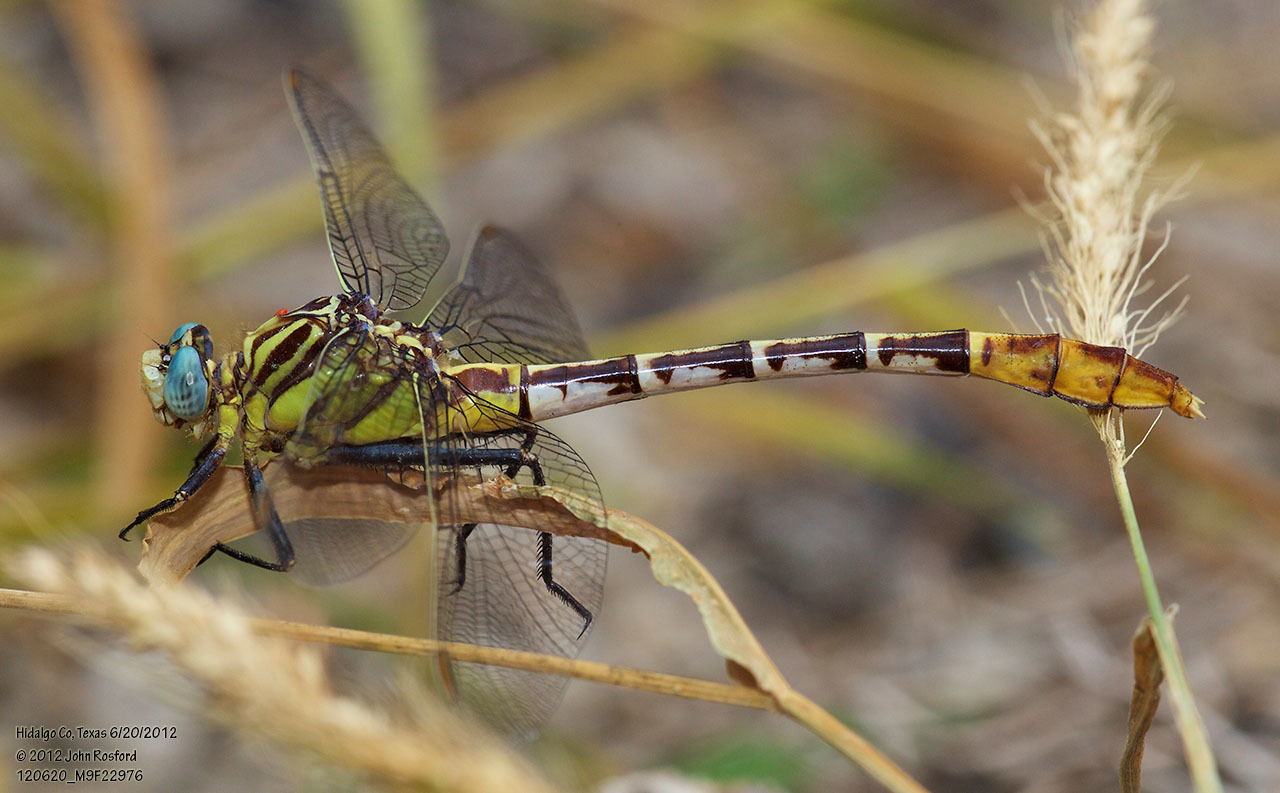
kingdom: Animalia
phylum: Arthropoda
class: Insecta
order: Odonata
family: Gomphidae
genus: Dromogomphus
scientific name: Dromogomphus spoliatus
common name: Flag-tailed spinyleg
